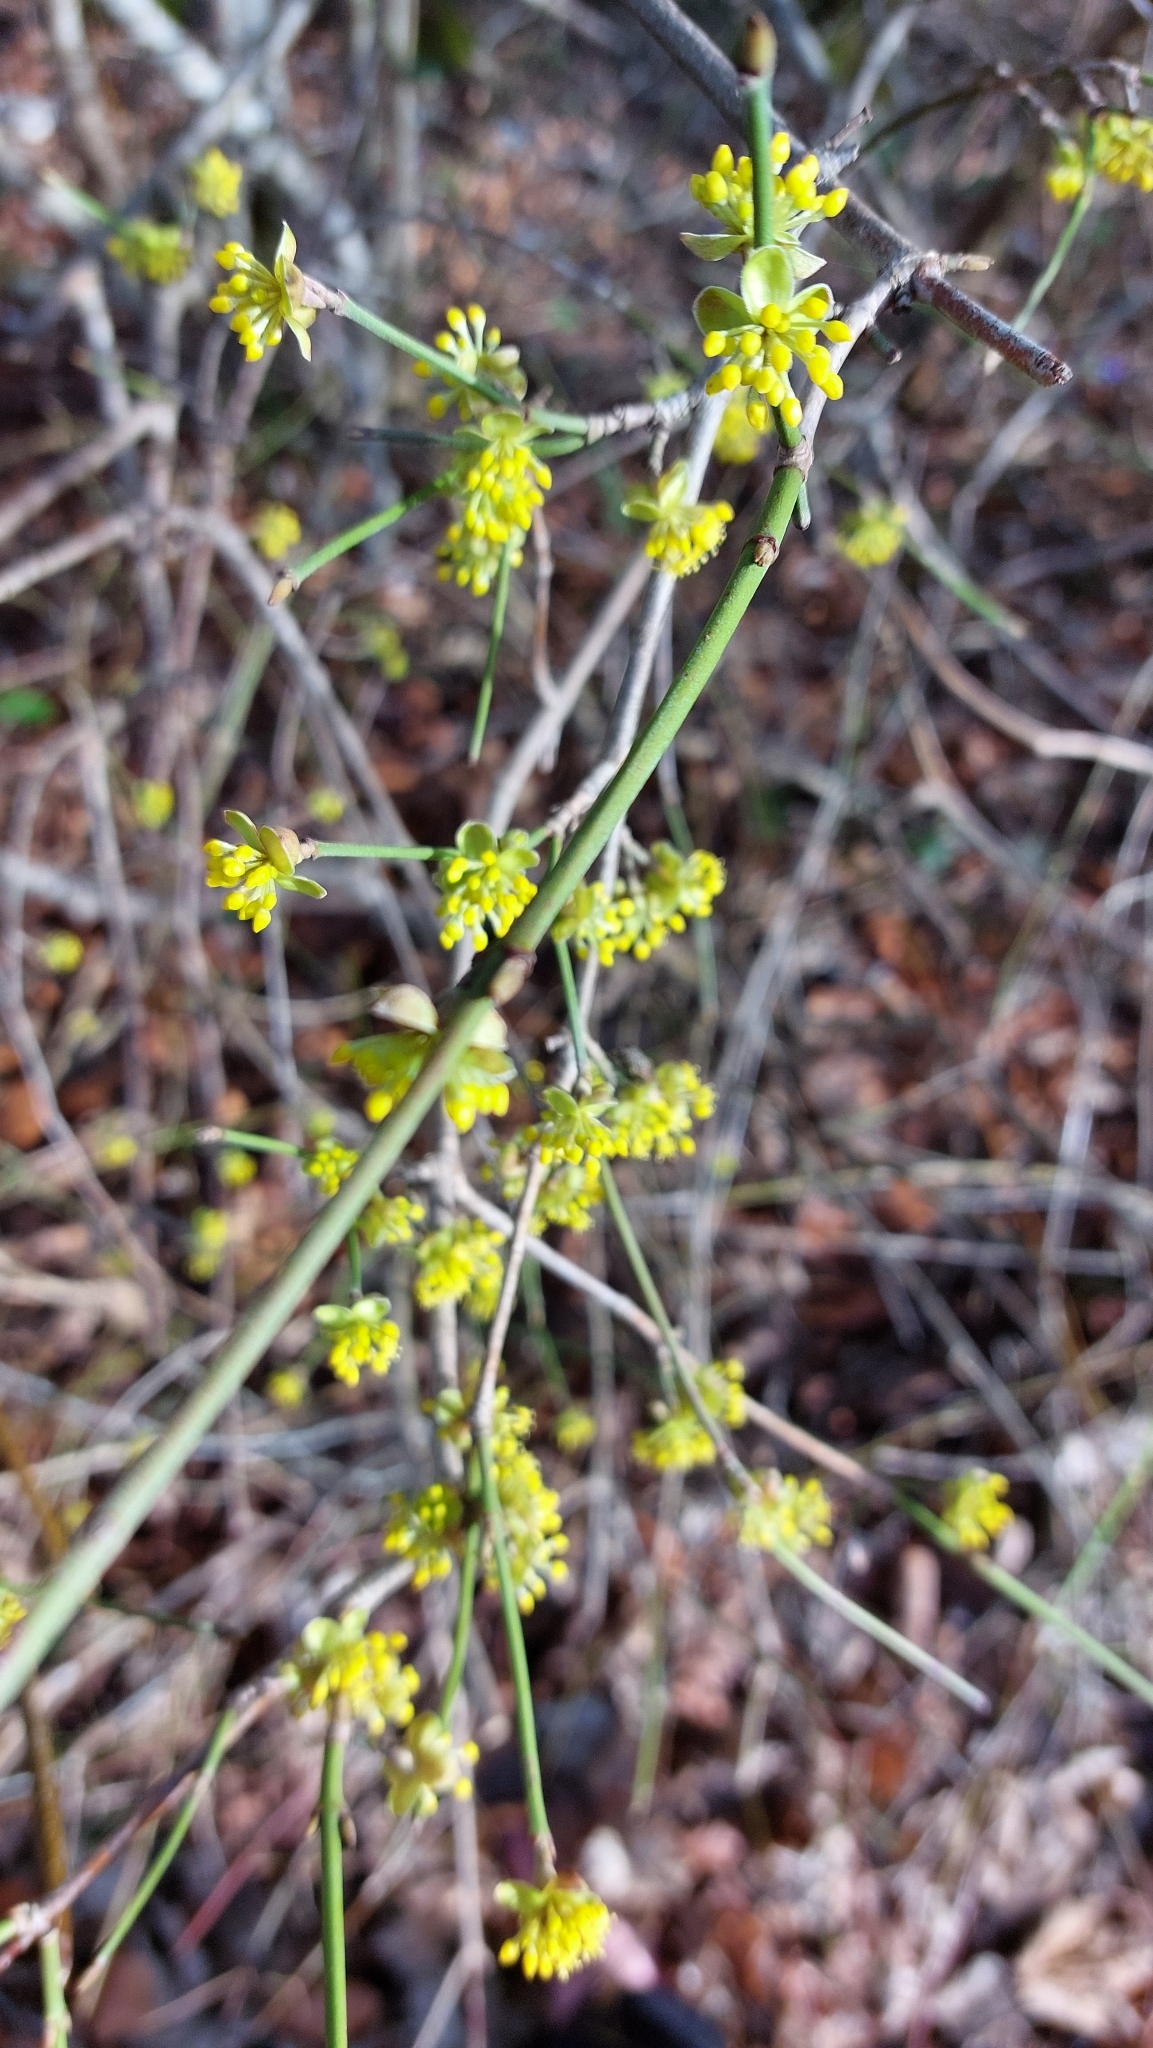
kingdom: Plantae
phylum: Tracheophyta
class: Magnoliopsida
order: Cornales
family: Cornaceae
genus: Cornus
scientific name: Cornus mas
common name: Cornelian-cherry
